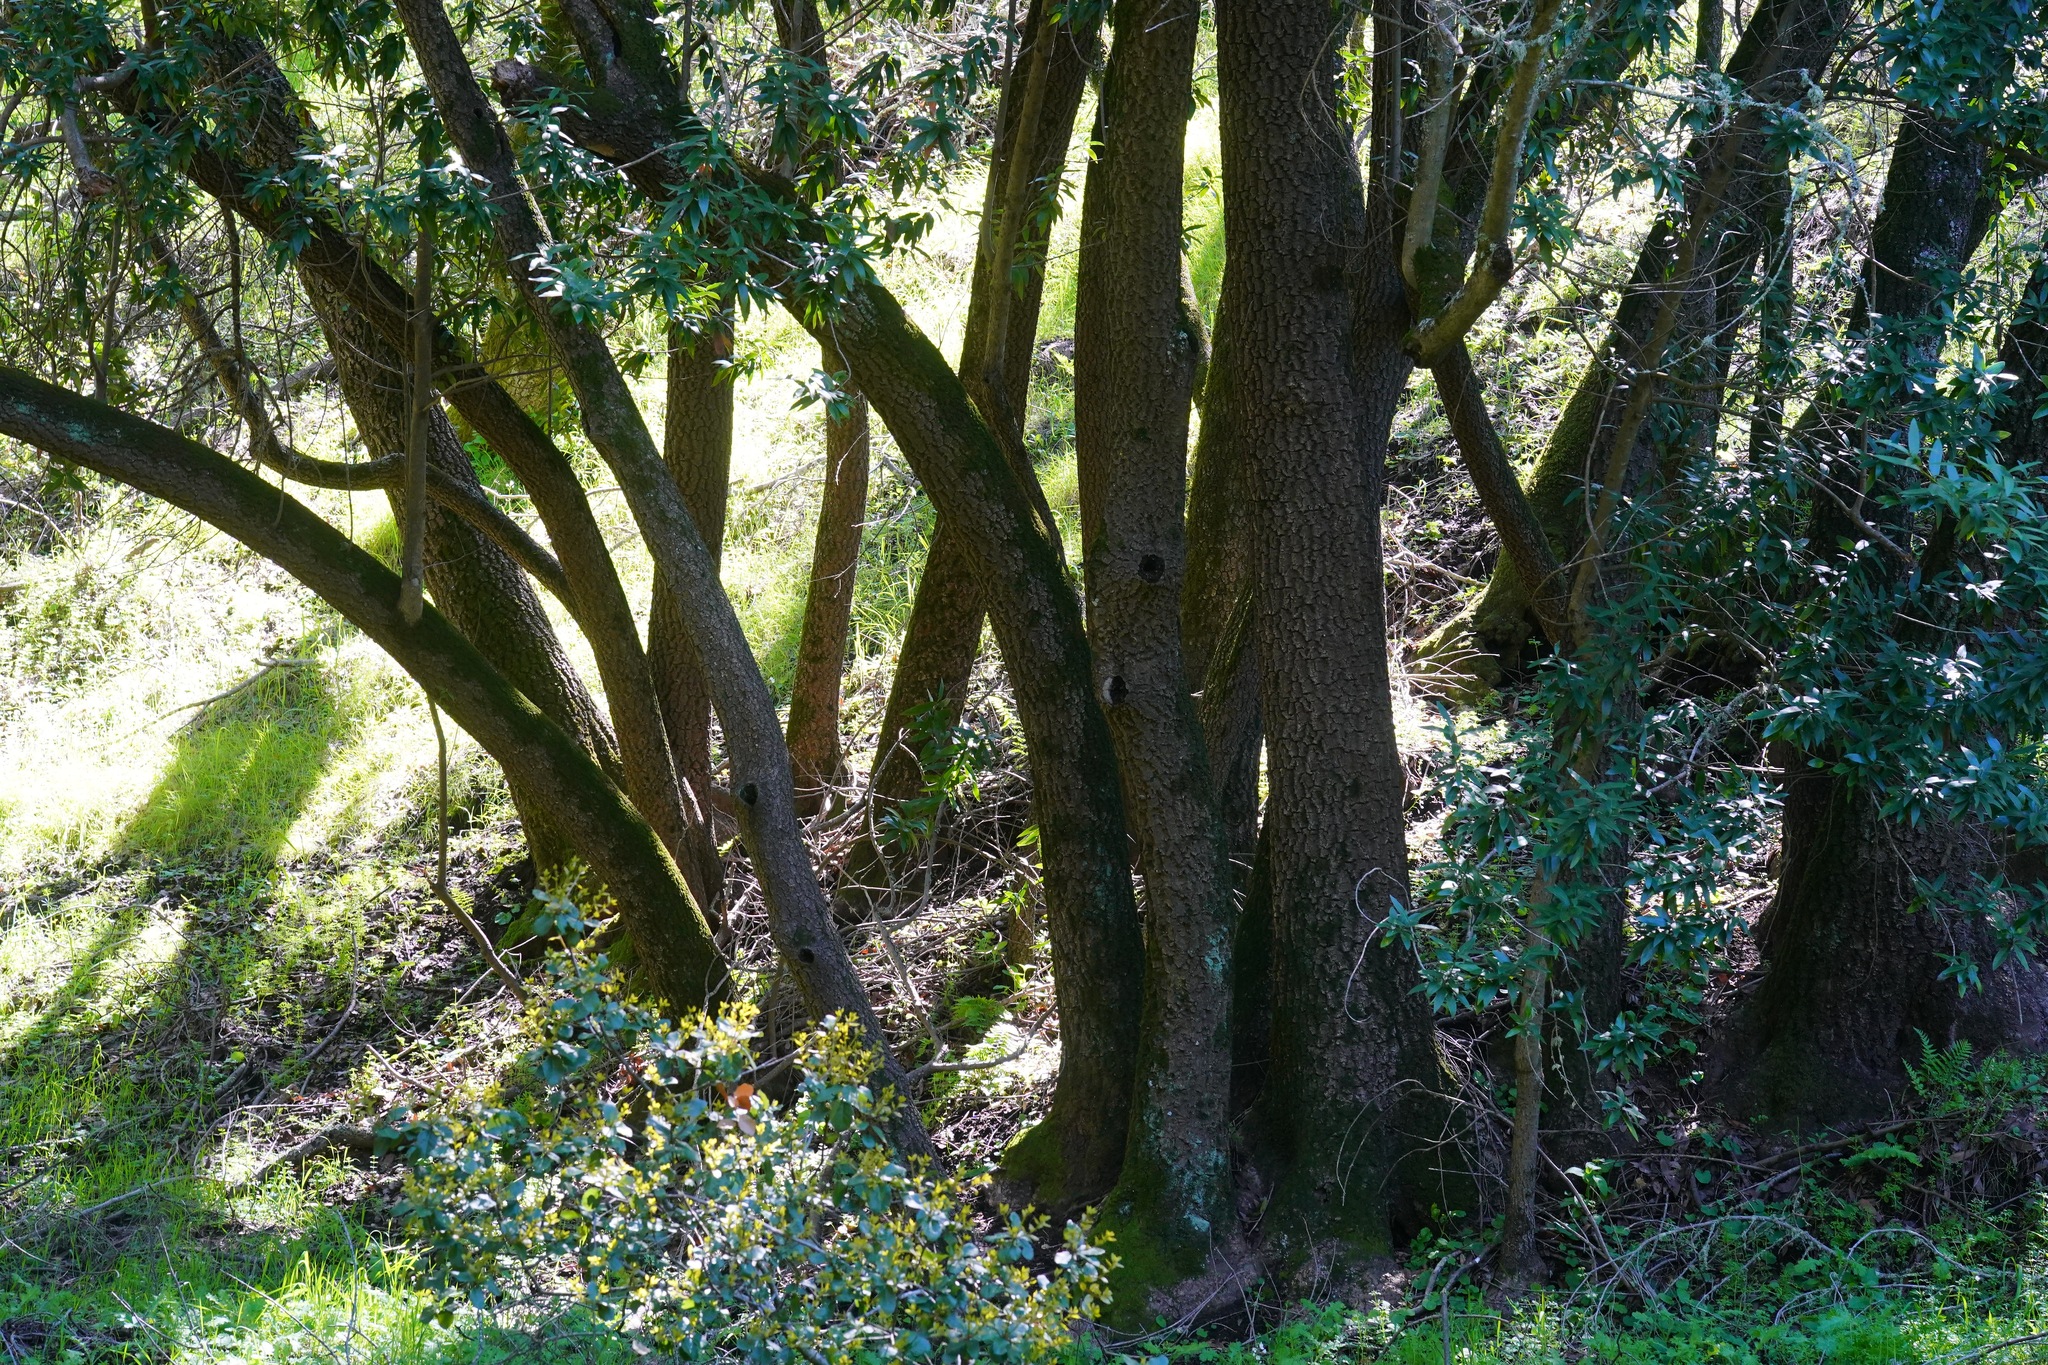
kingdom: Plantae
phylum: Tracheophyta
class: Magnoliopsida
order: Laurales
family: Lauraceae
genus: Umbellularia
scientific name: Umbellularia californica
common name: California bay
